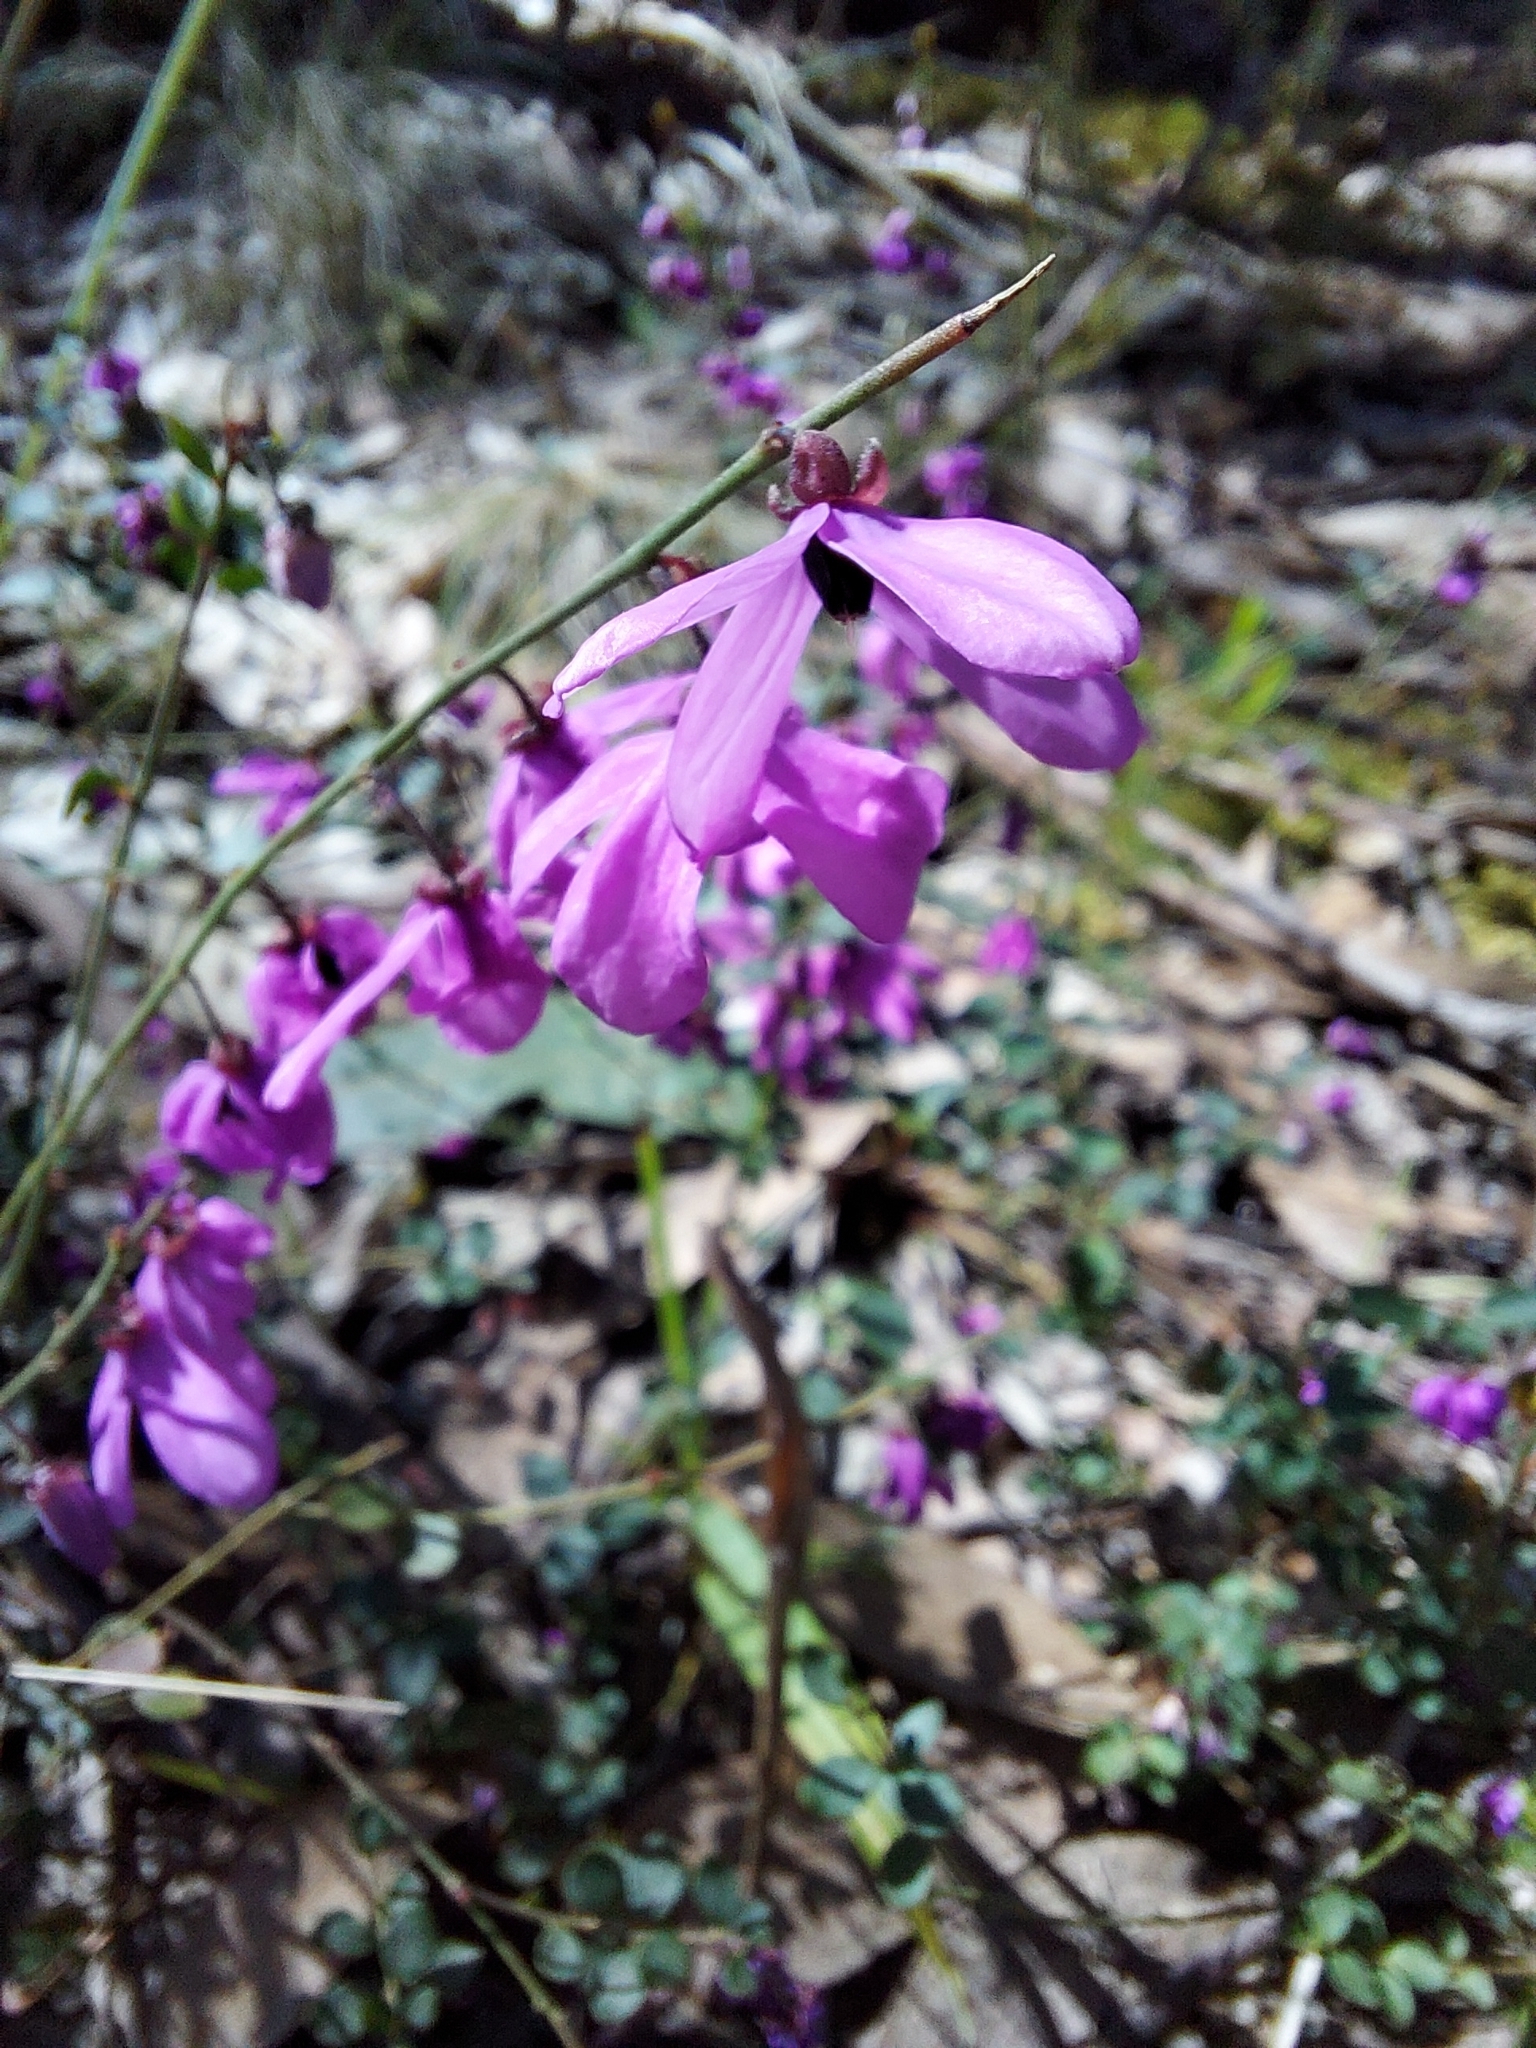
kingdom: Plantae
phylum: Tracheophyta
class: Magnoliopsida
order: Oxalidales
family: Elaeocarpaceae
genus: Tetratheca
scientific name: Tetratheca ciliata
